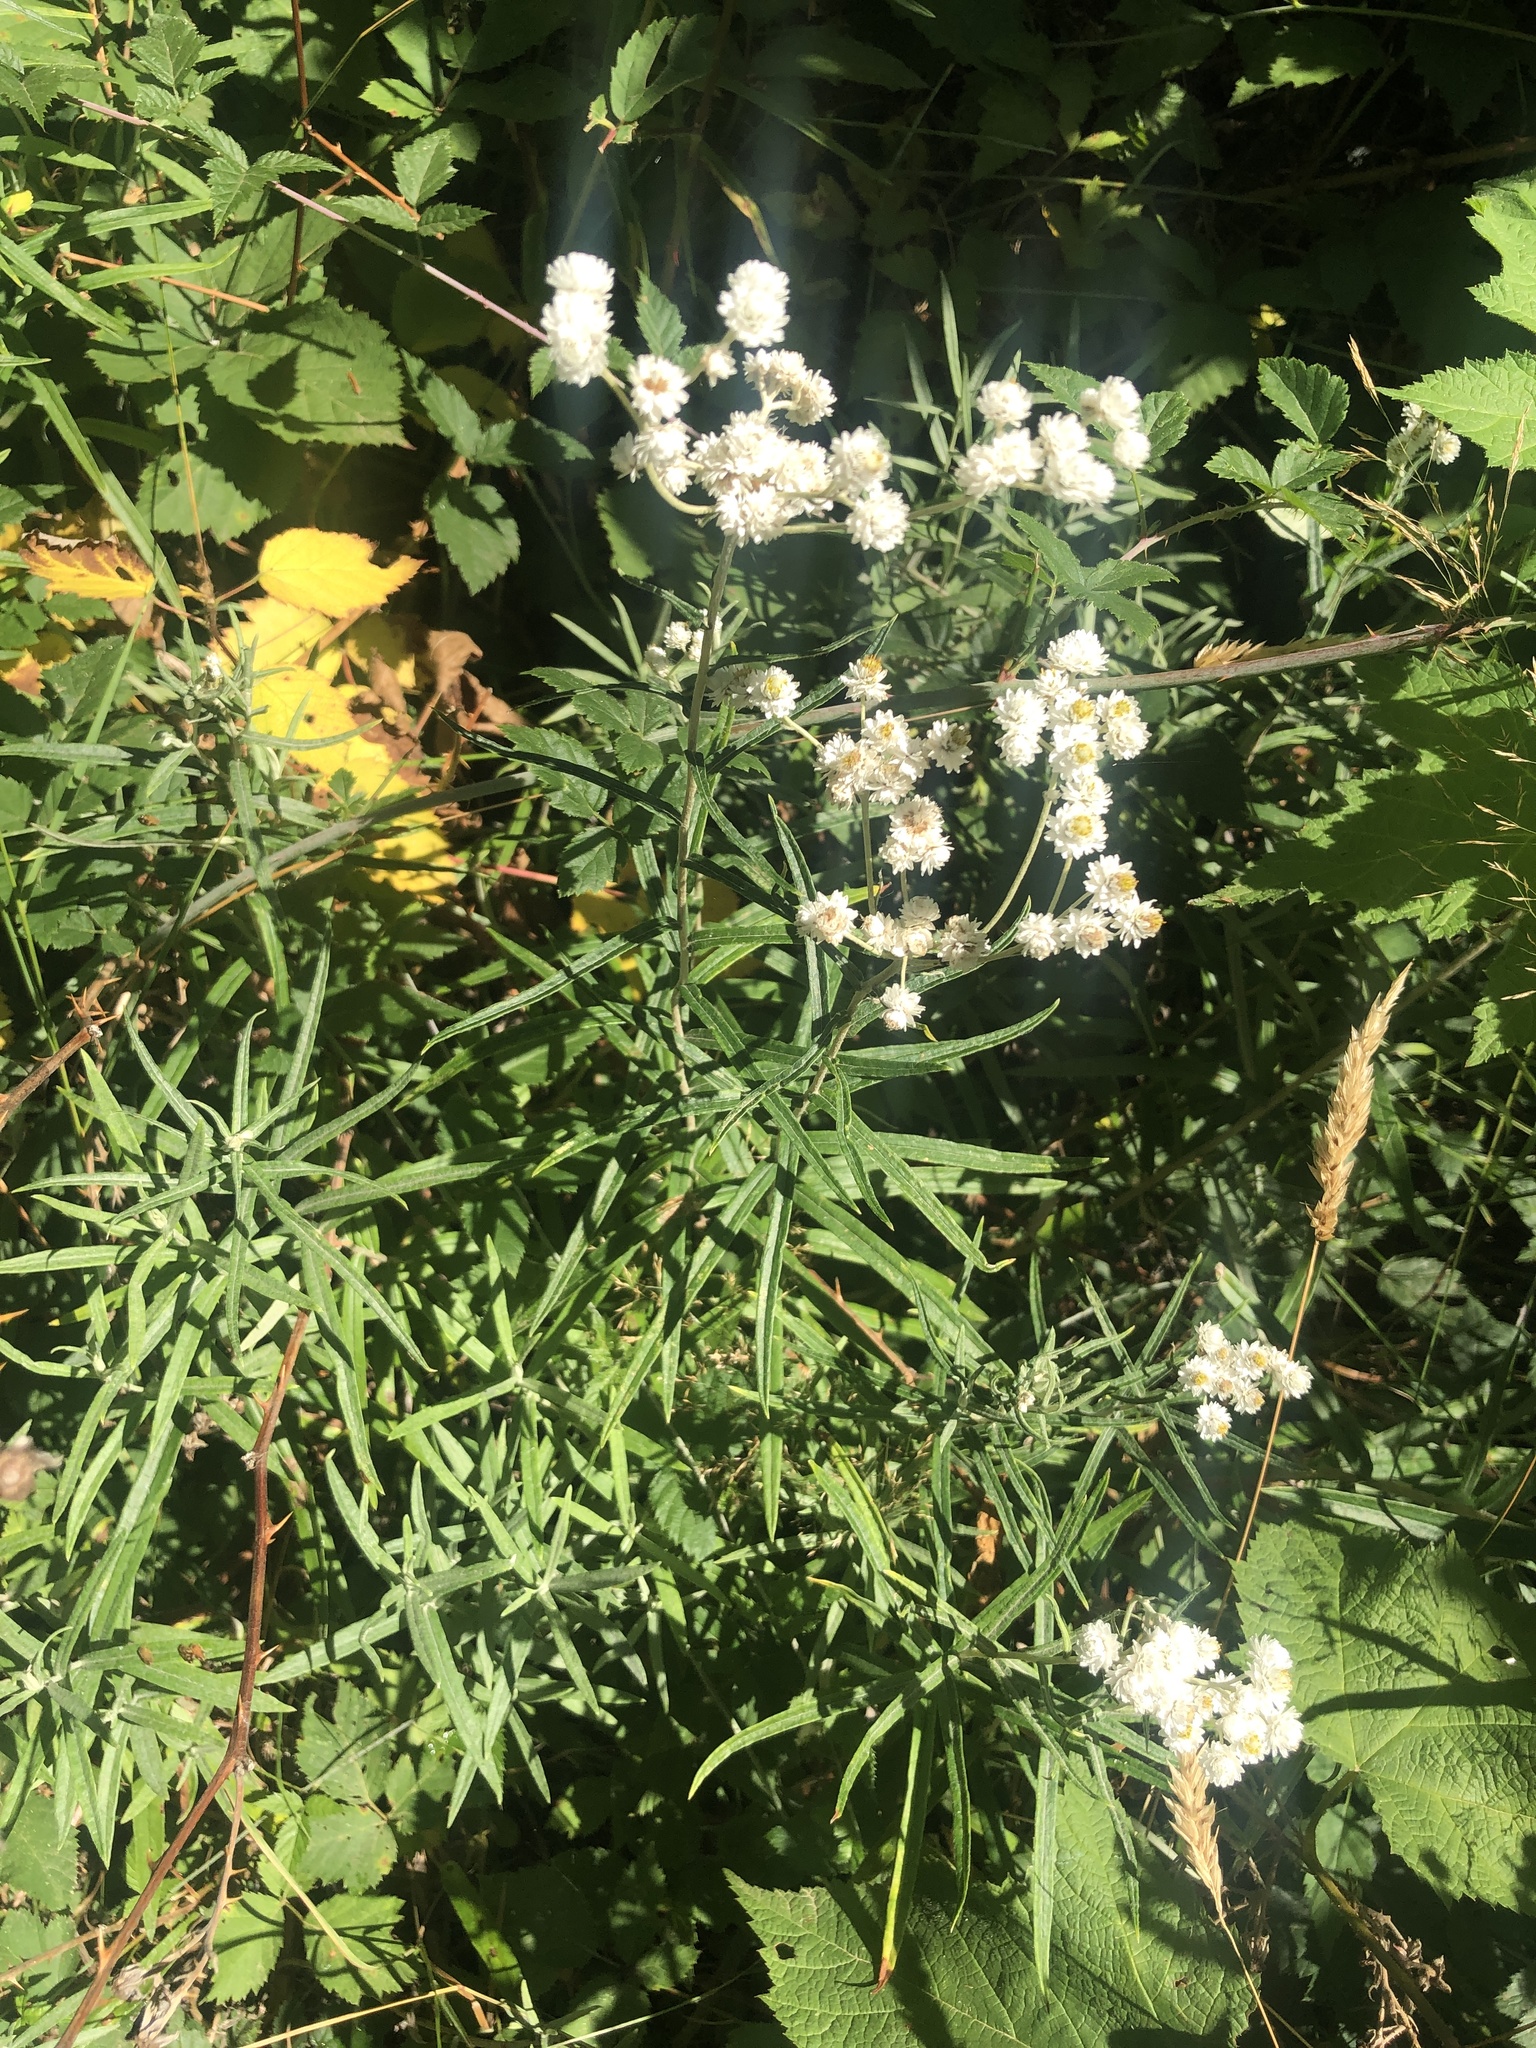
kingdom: Plantae
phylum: Tracheophyta
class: Magnoliopsida
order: Asterales
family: Asteraceae
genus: Anaphalis
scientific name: Anaphalis margaritacea
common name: Pearly everlasting
